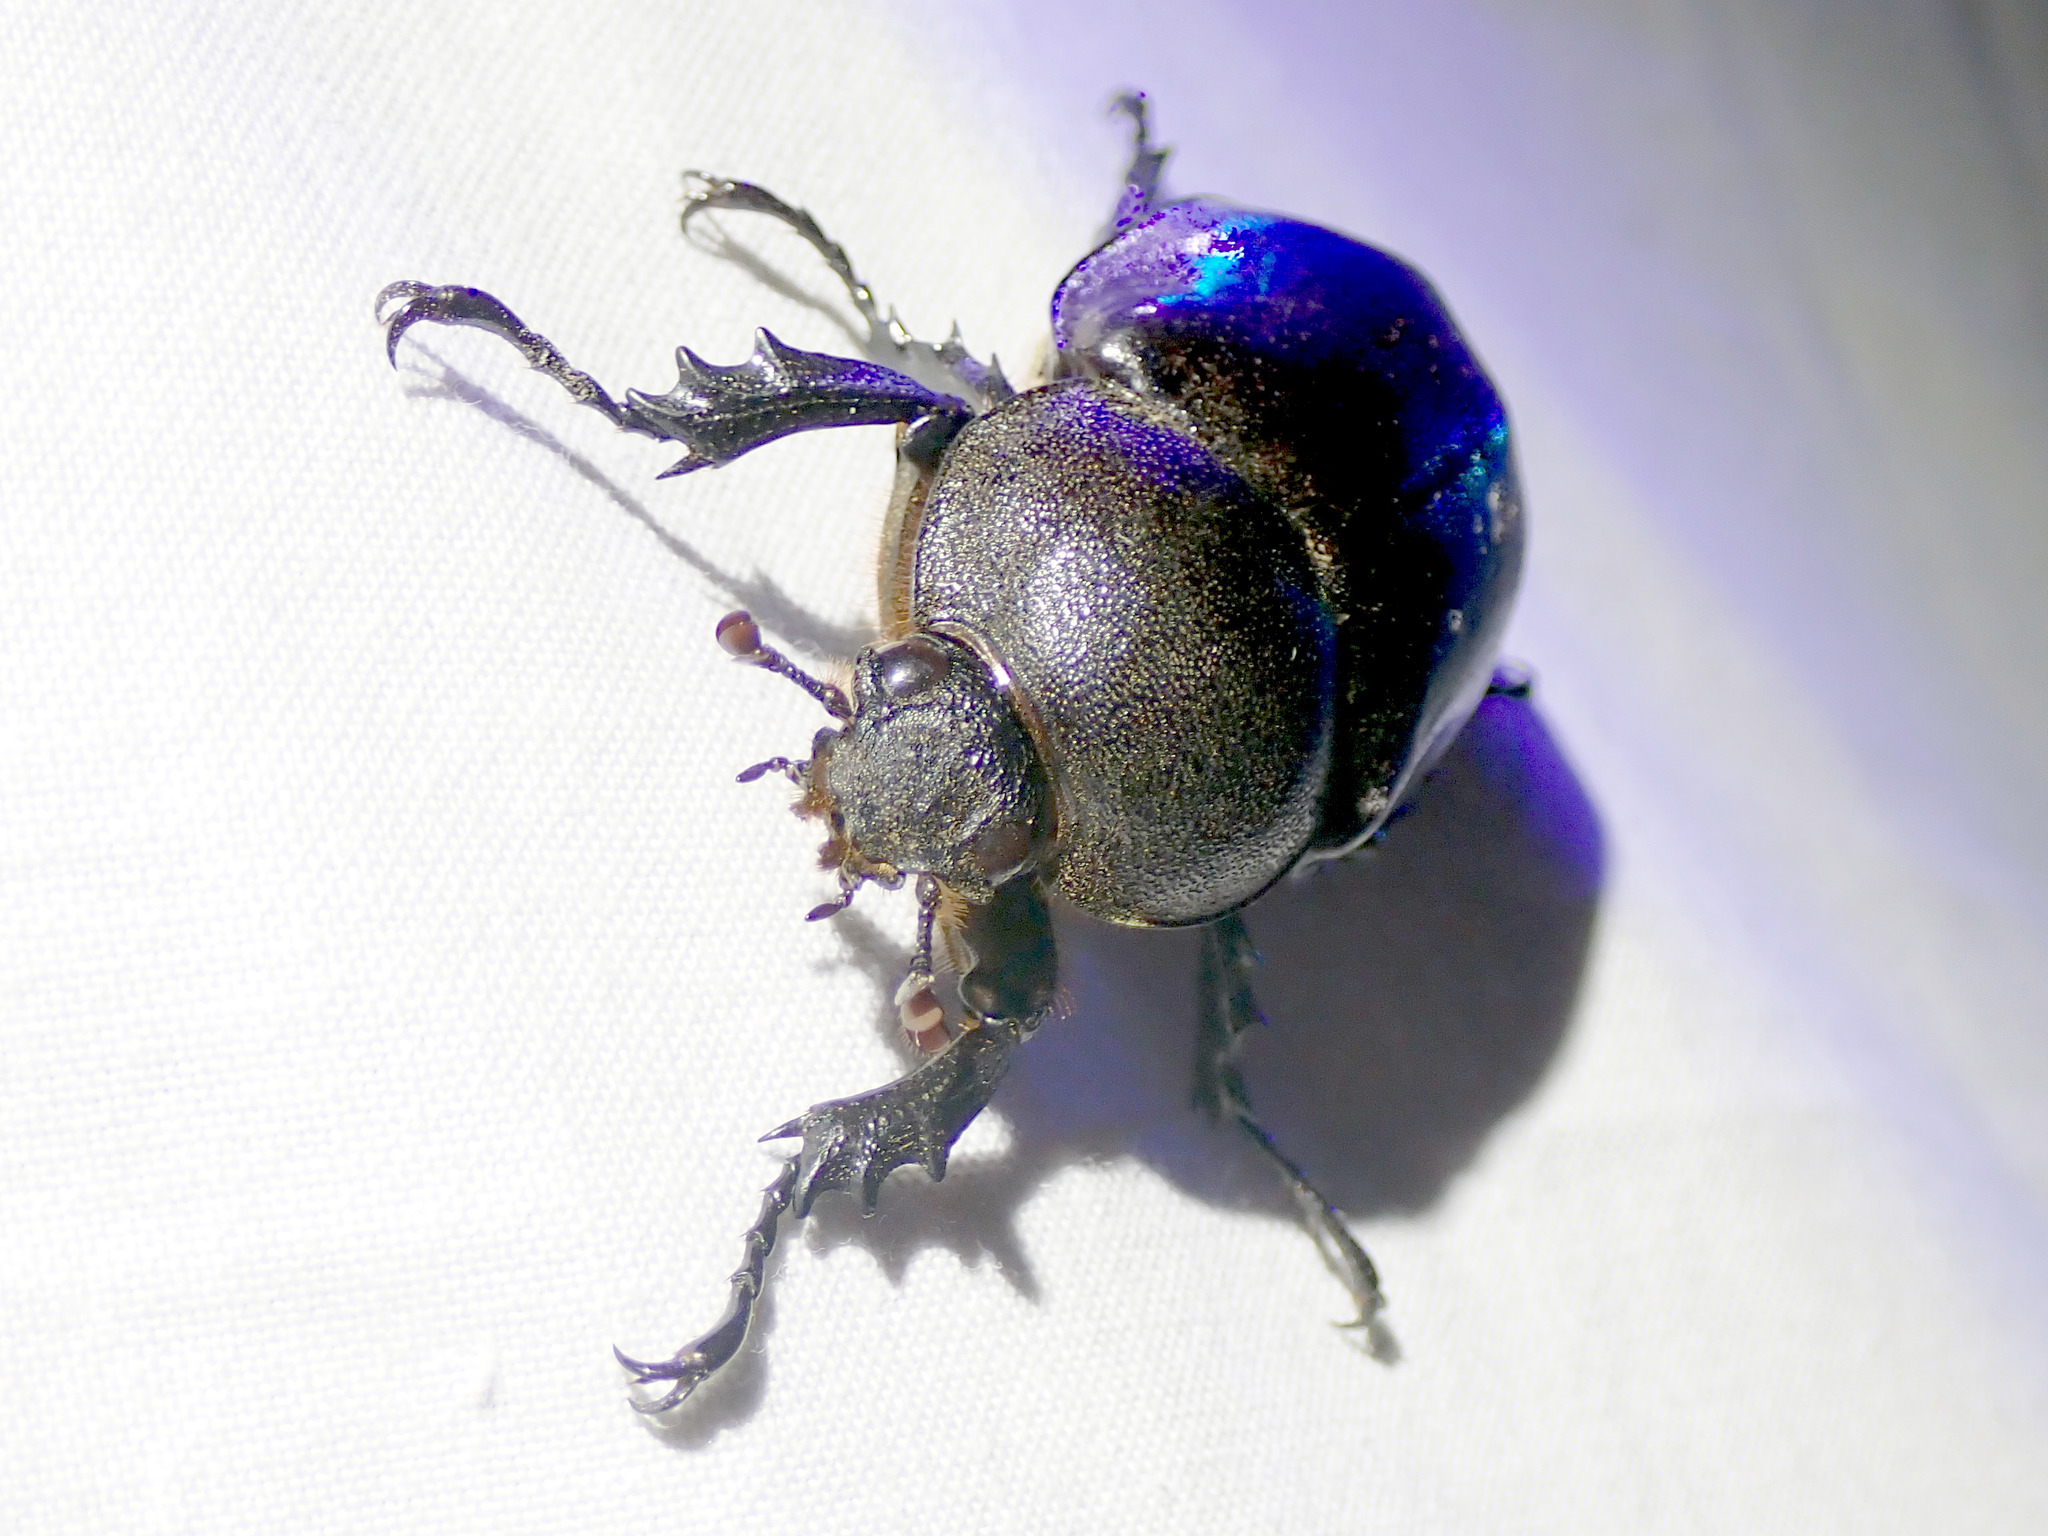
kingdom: Animalia
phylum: Arthropoda
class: Insecta
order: Coleoptera
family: Scarabaeidae
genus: Xylotrupes
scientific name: Xylotrupes australicus
